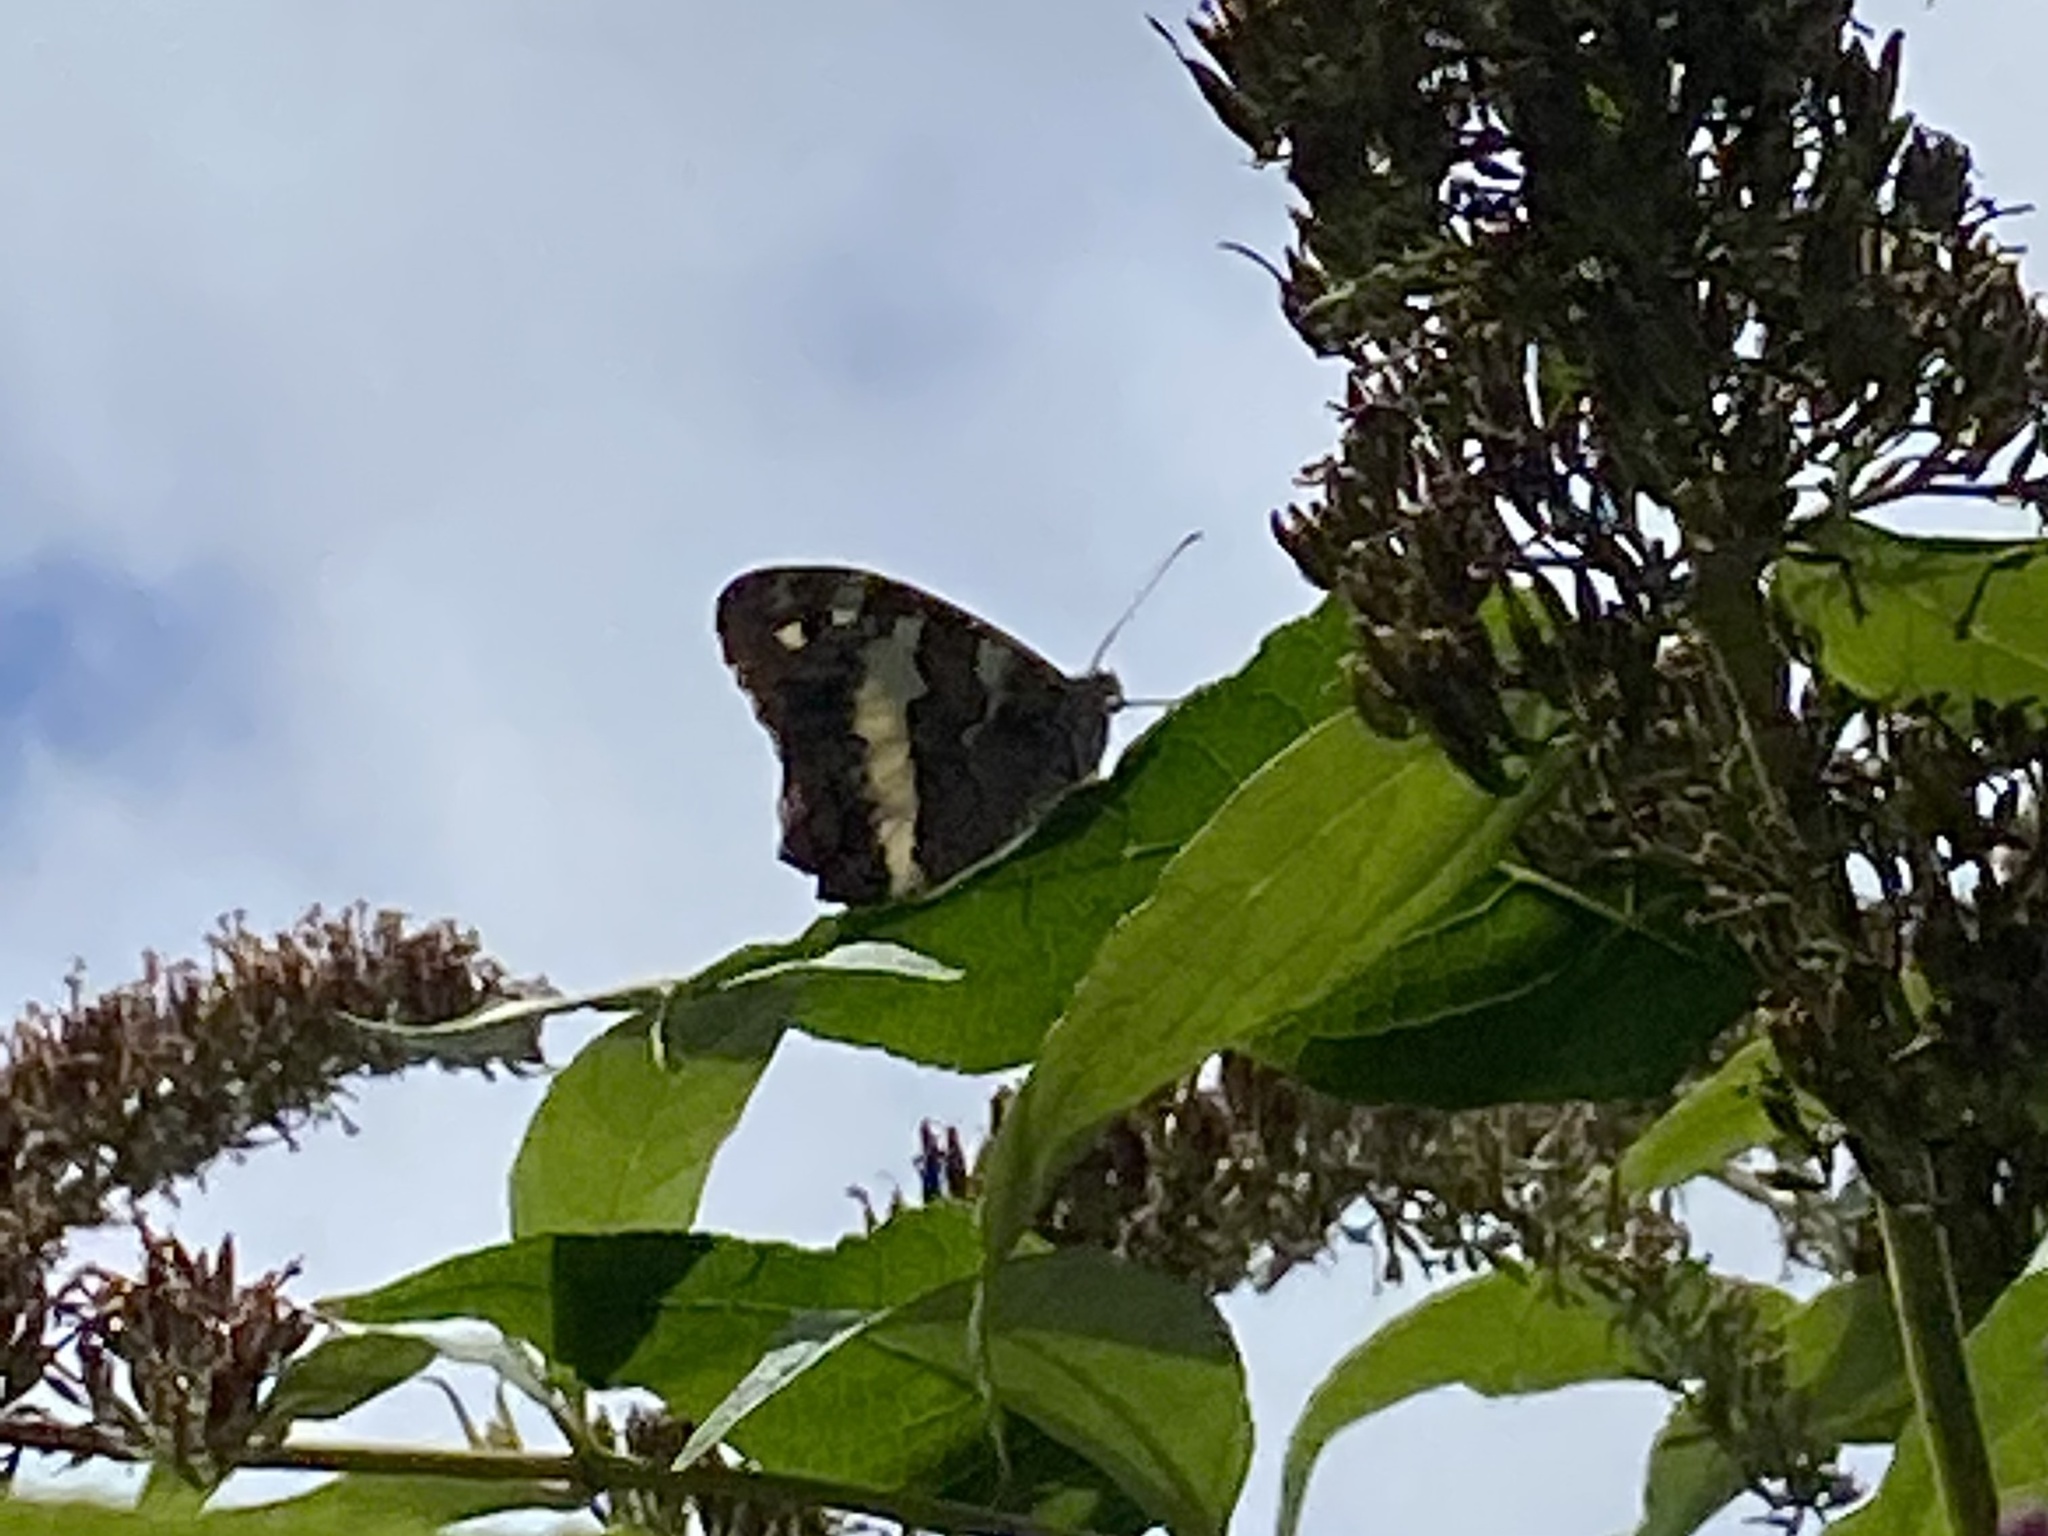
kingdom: Animalia
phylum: Arthropoda
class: Insecta
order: Lepidoptera
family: Lycaenidae
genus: Loweia
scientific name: Loweia tityrus
